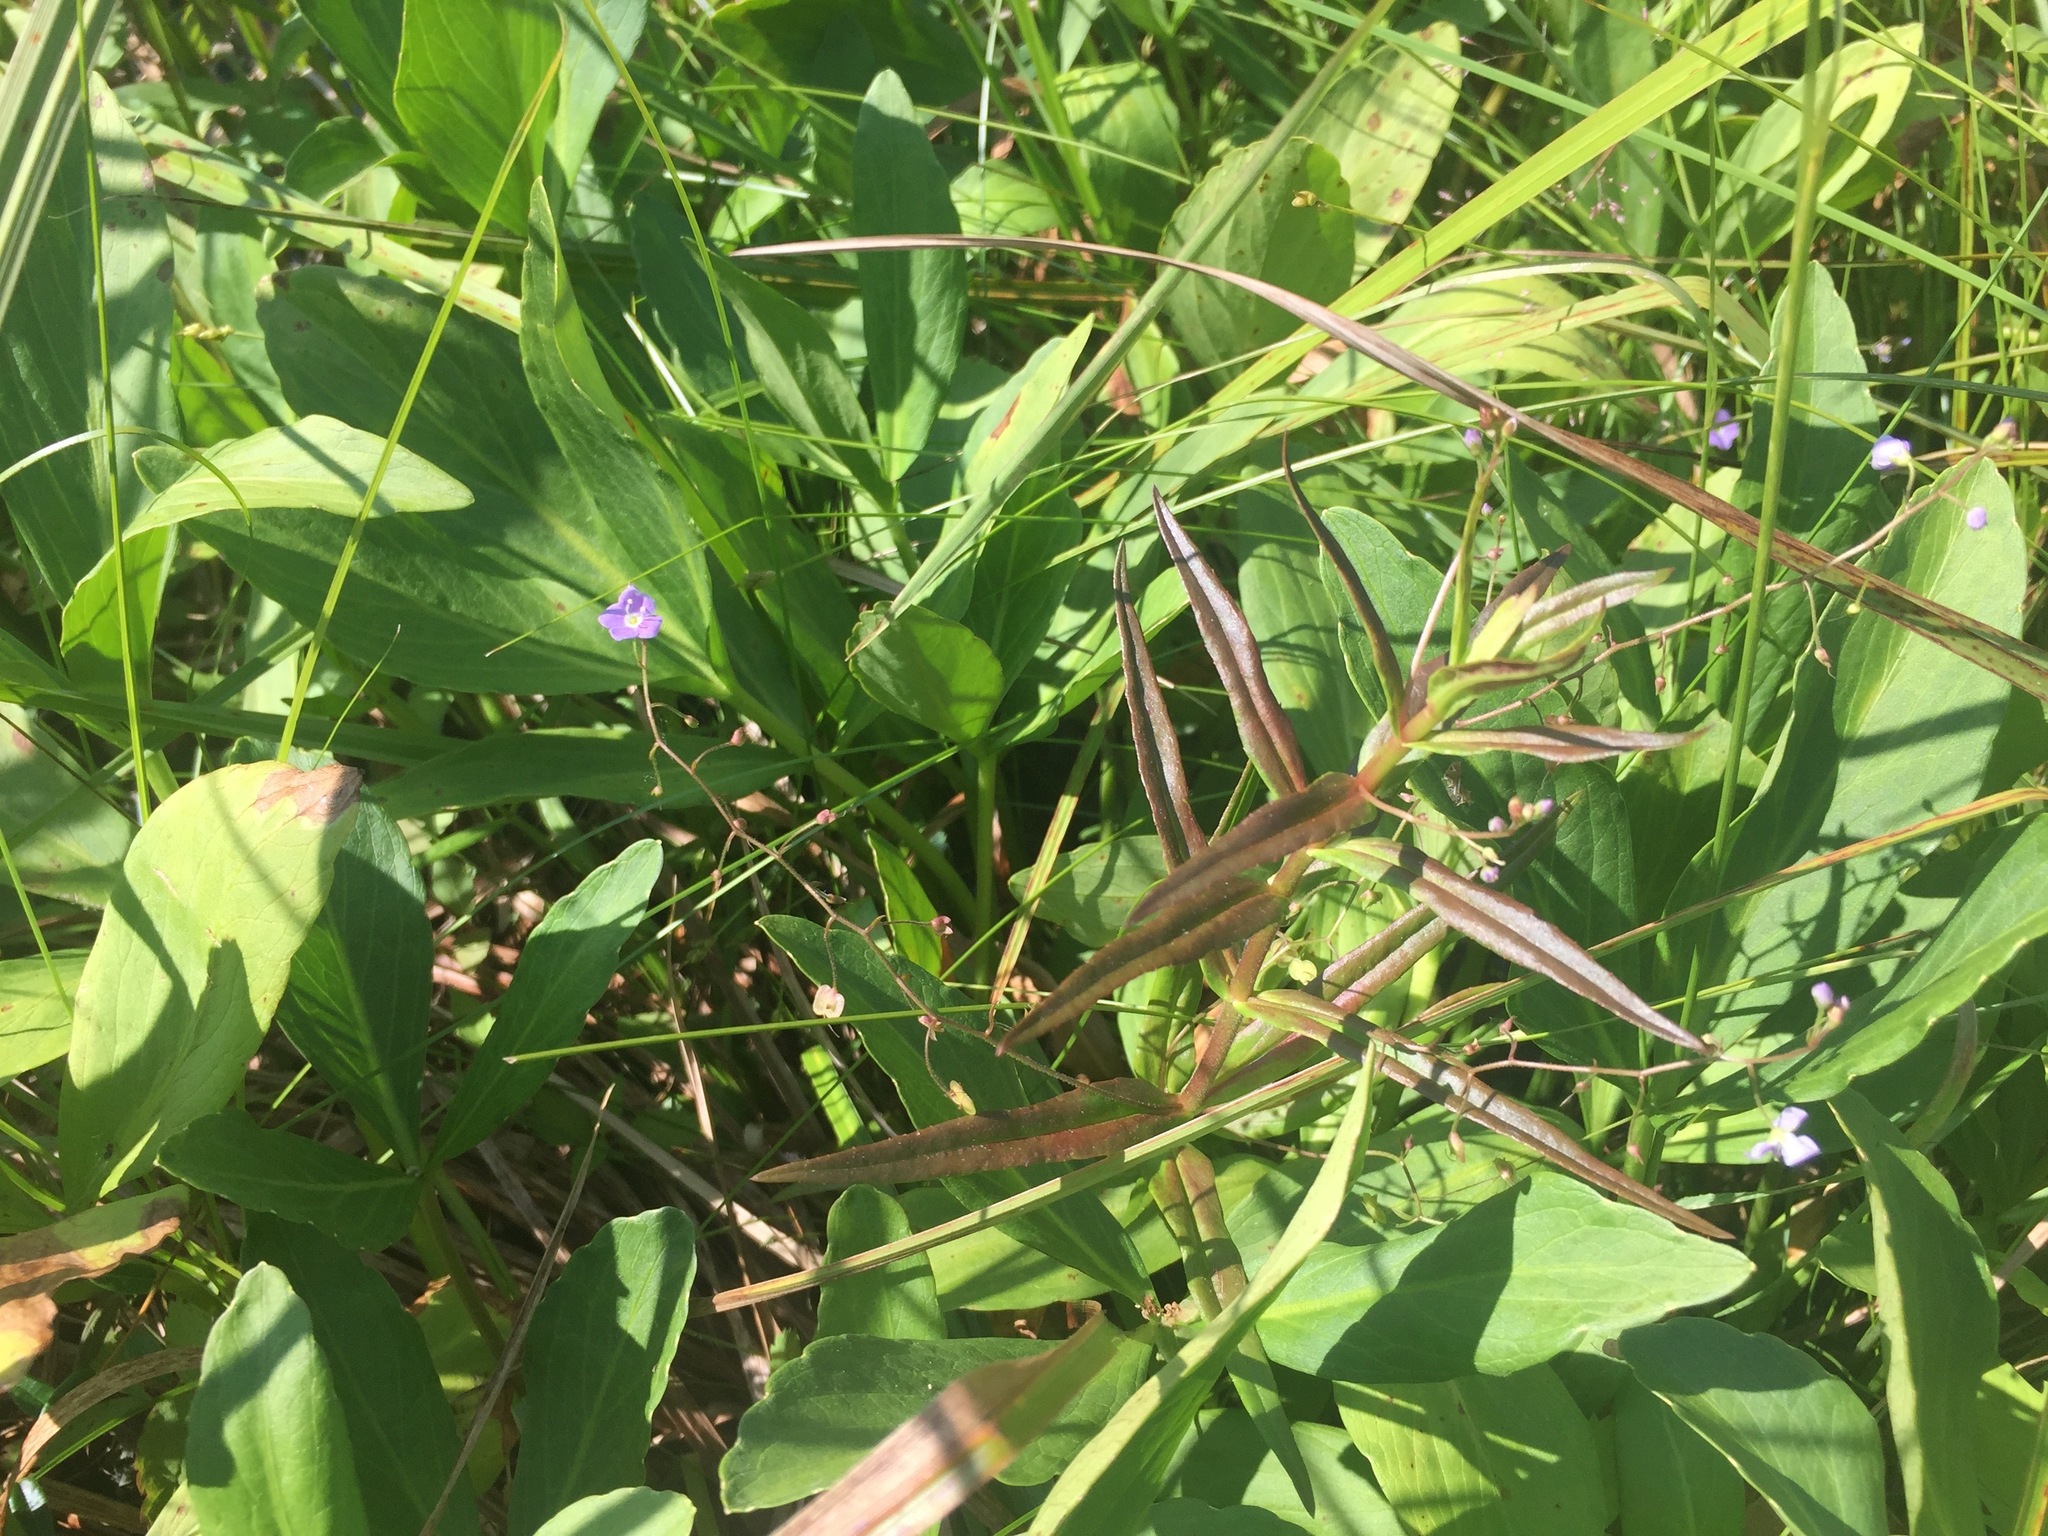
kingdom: Plantae
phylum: Tracheophyta
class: Magnoliopsida
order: Lamiales
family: Plantaginaceae
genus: Veronica
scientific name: Veronica scutellata
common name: Marsh speedwell
